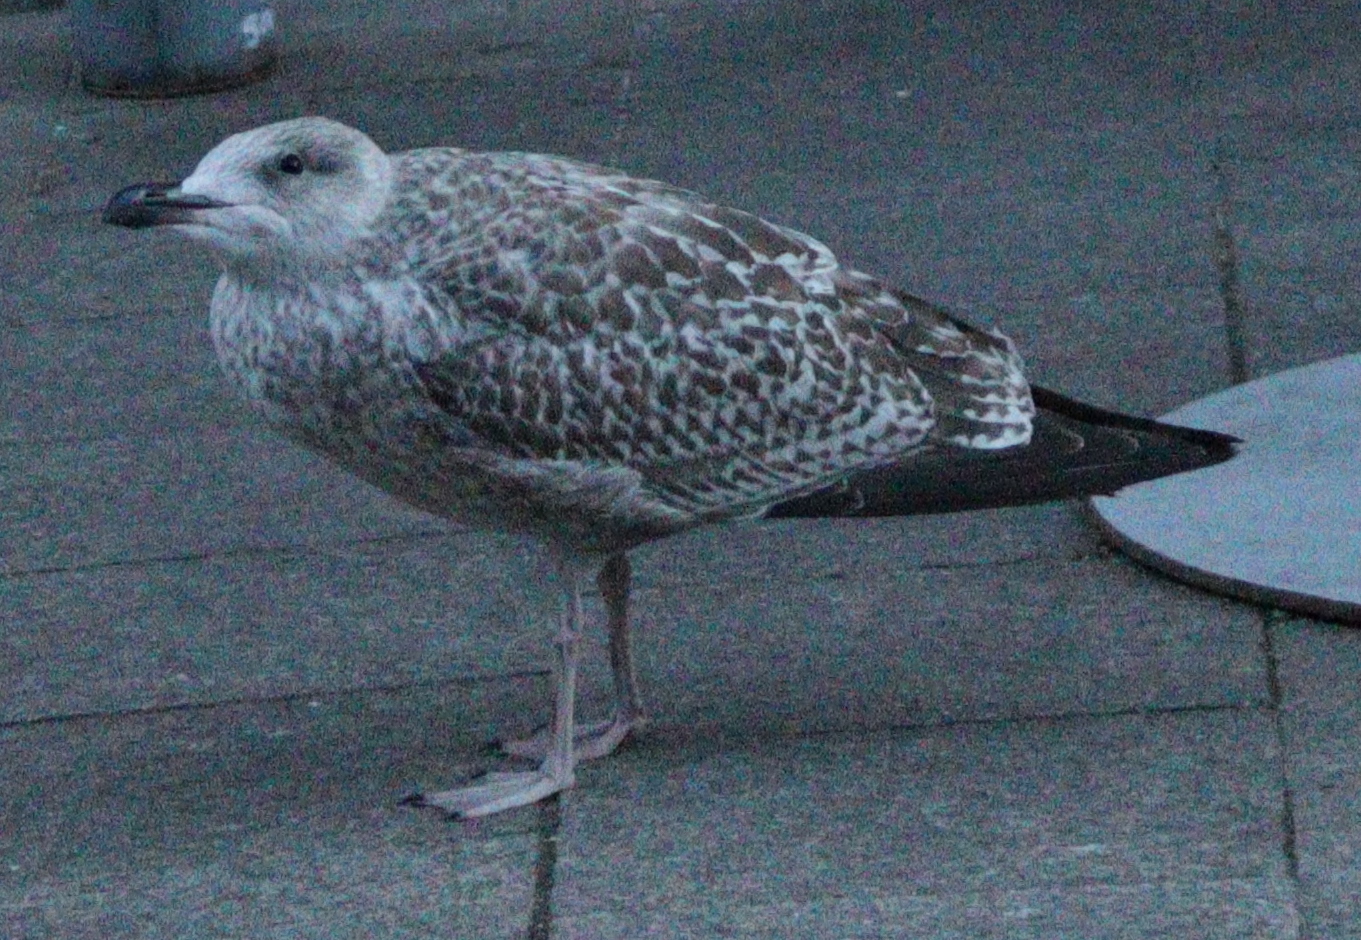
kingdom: Animalia
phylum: Chordata
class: Aves
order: Charadriiformes
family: Laridae
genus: Larus
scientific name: Larus argentatus
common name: Herring gull
